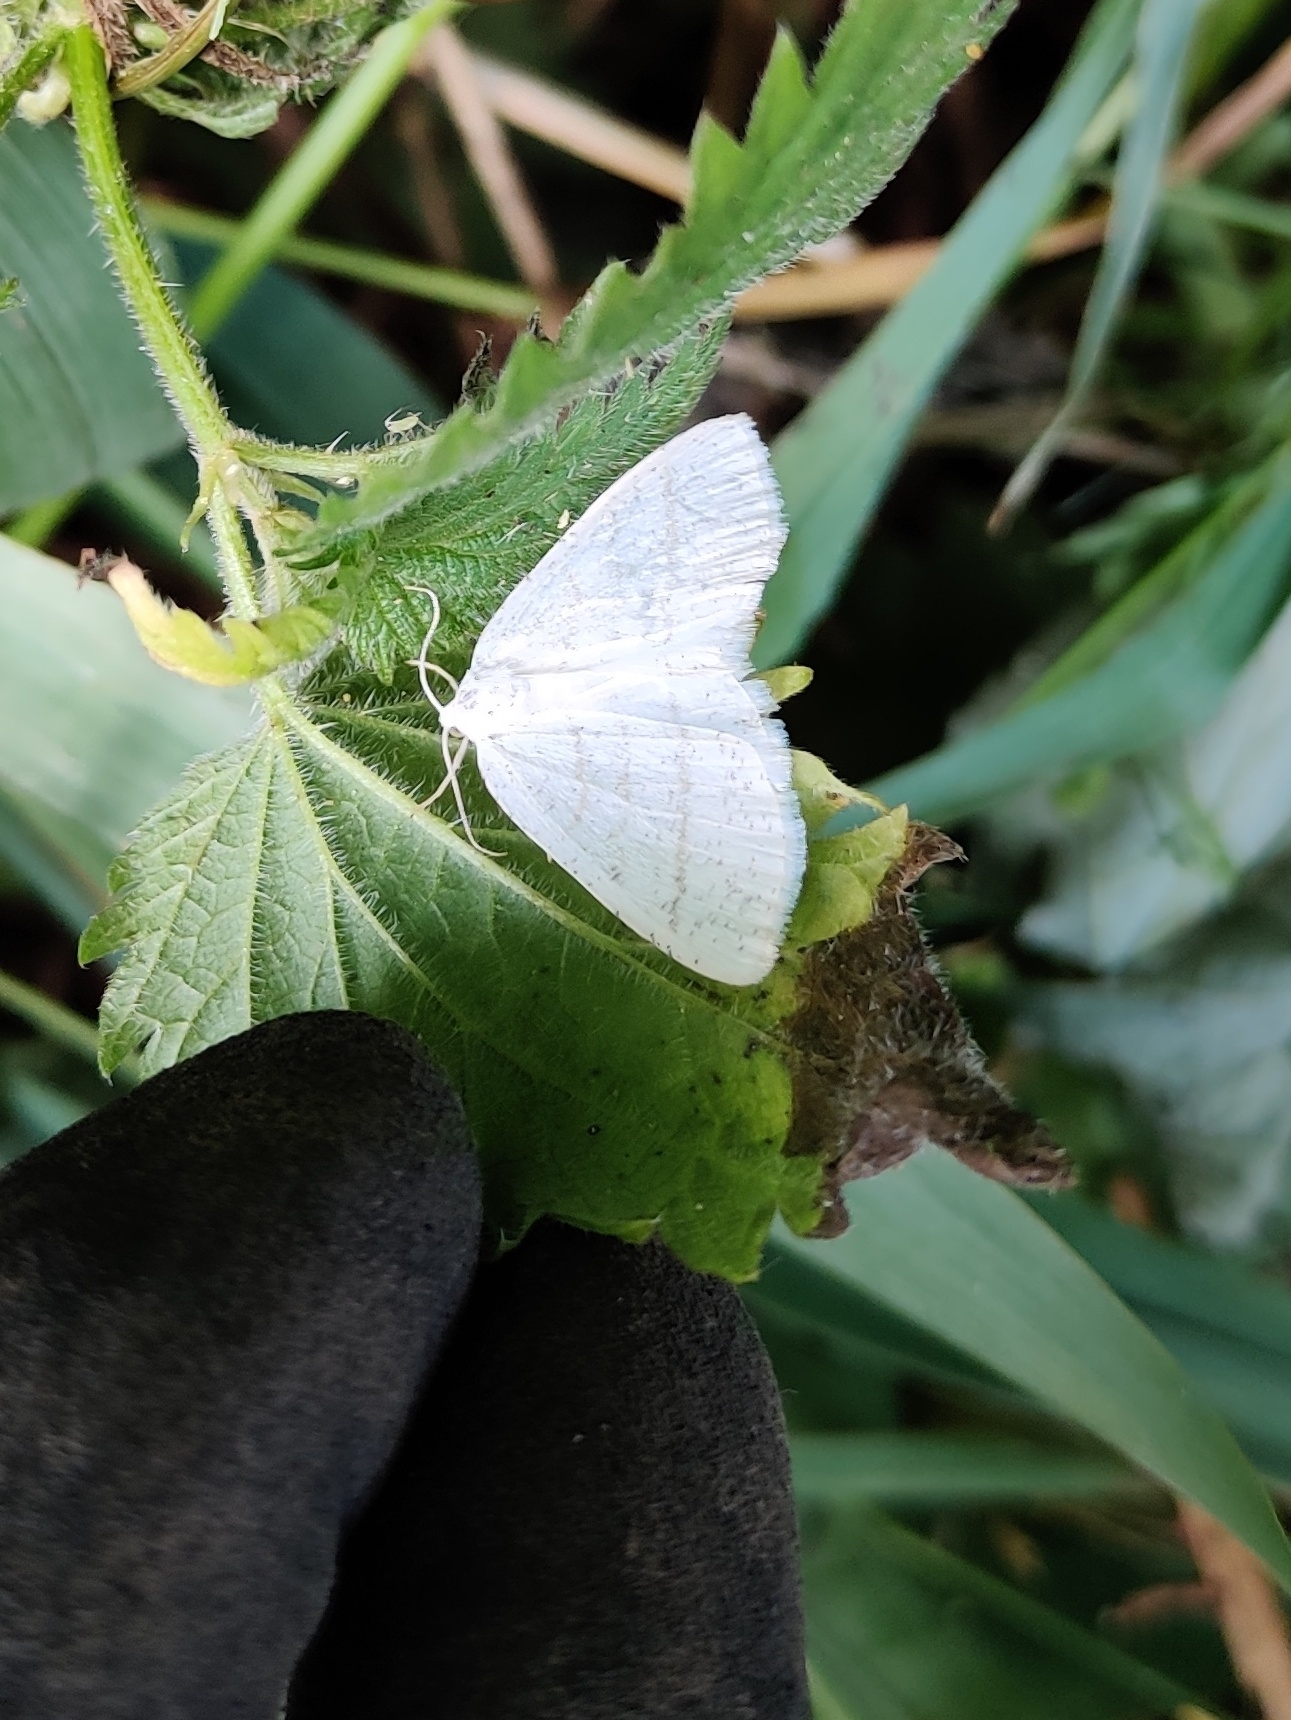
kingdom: Animalia
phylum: Arthropoda
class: Insecta
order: Lepidoptera
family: Geometridae
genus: Cabera
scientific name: Cabera pusaria
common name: Common white wave
